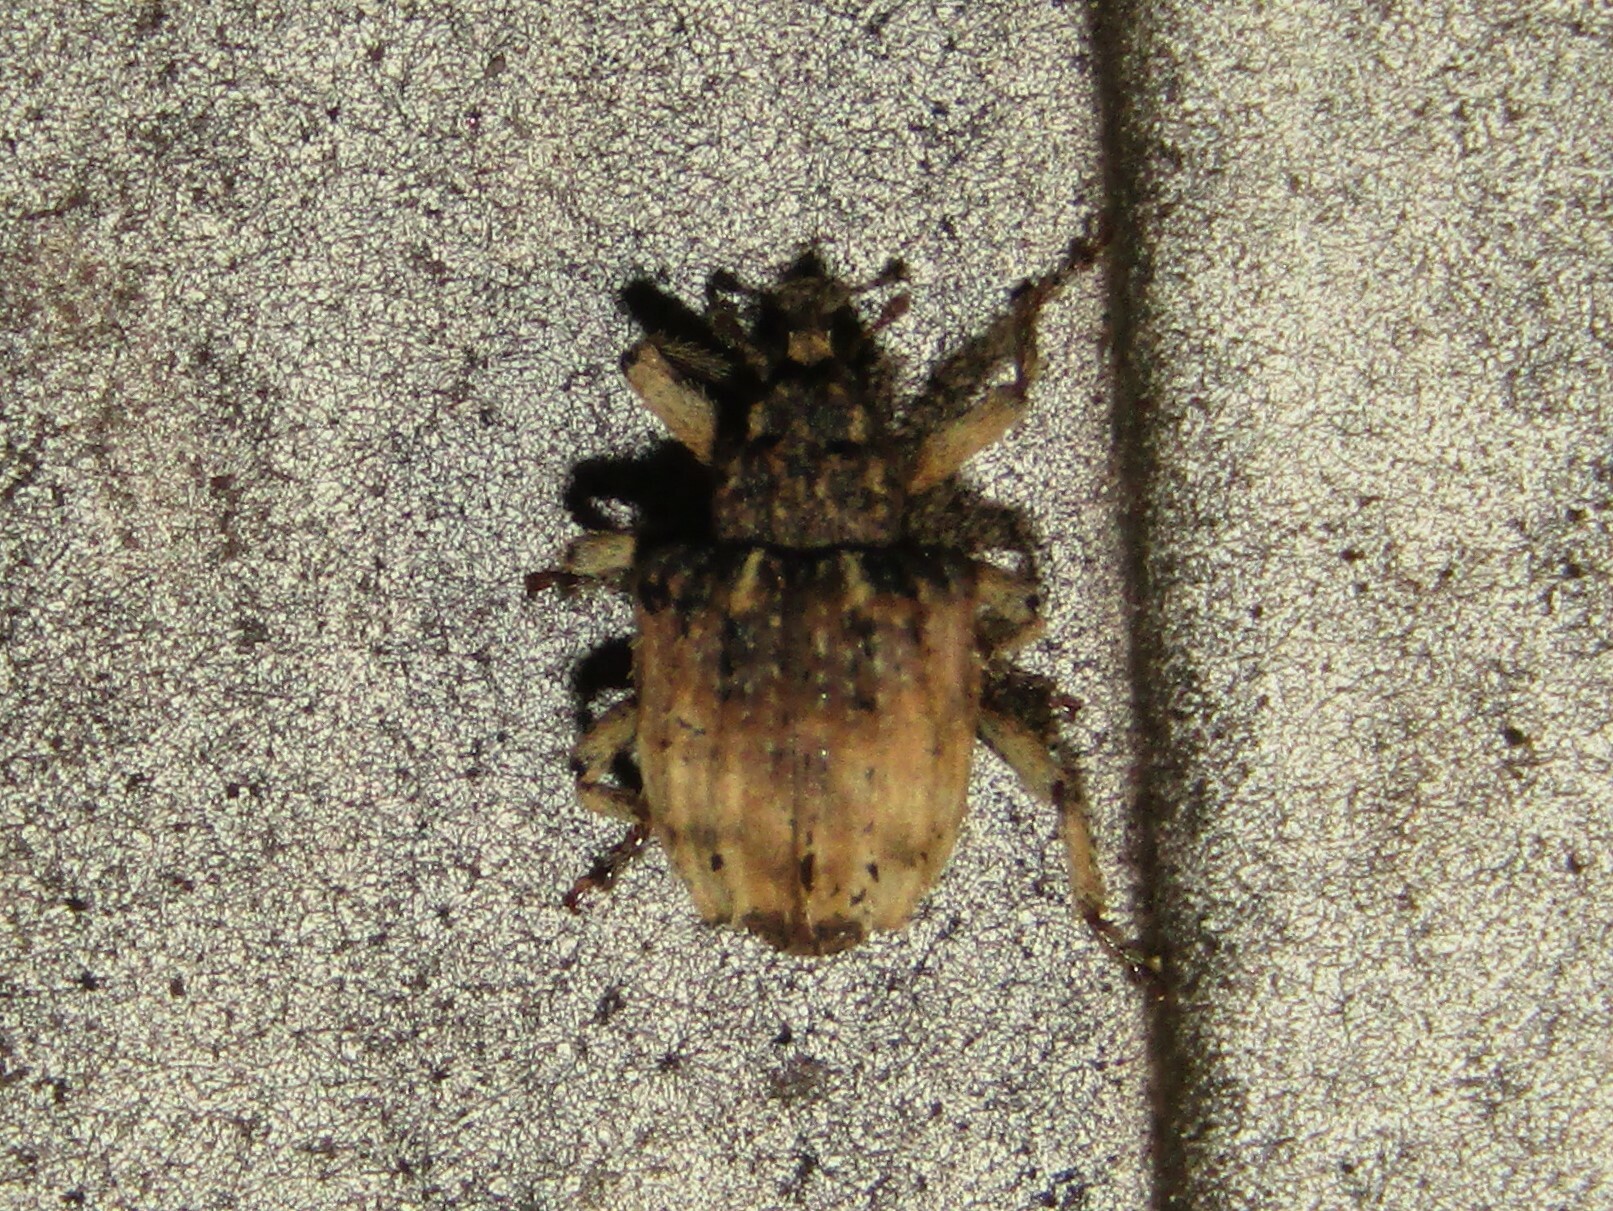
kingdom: Animalia
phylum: Arthropoda
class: Insecta
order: Coleoptera
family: Curculionidae
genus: Phyrdenus
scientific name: Phyrdenus divergens
